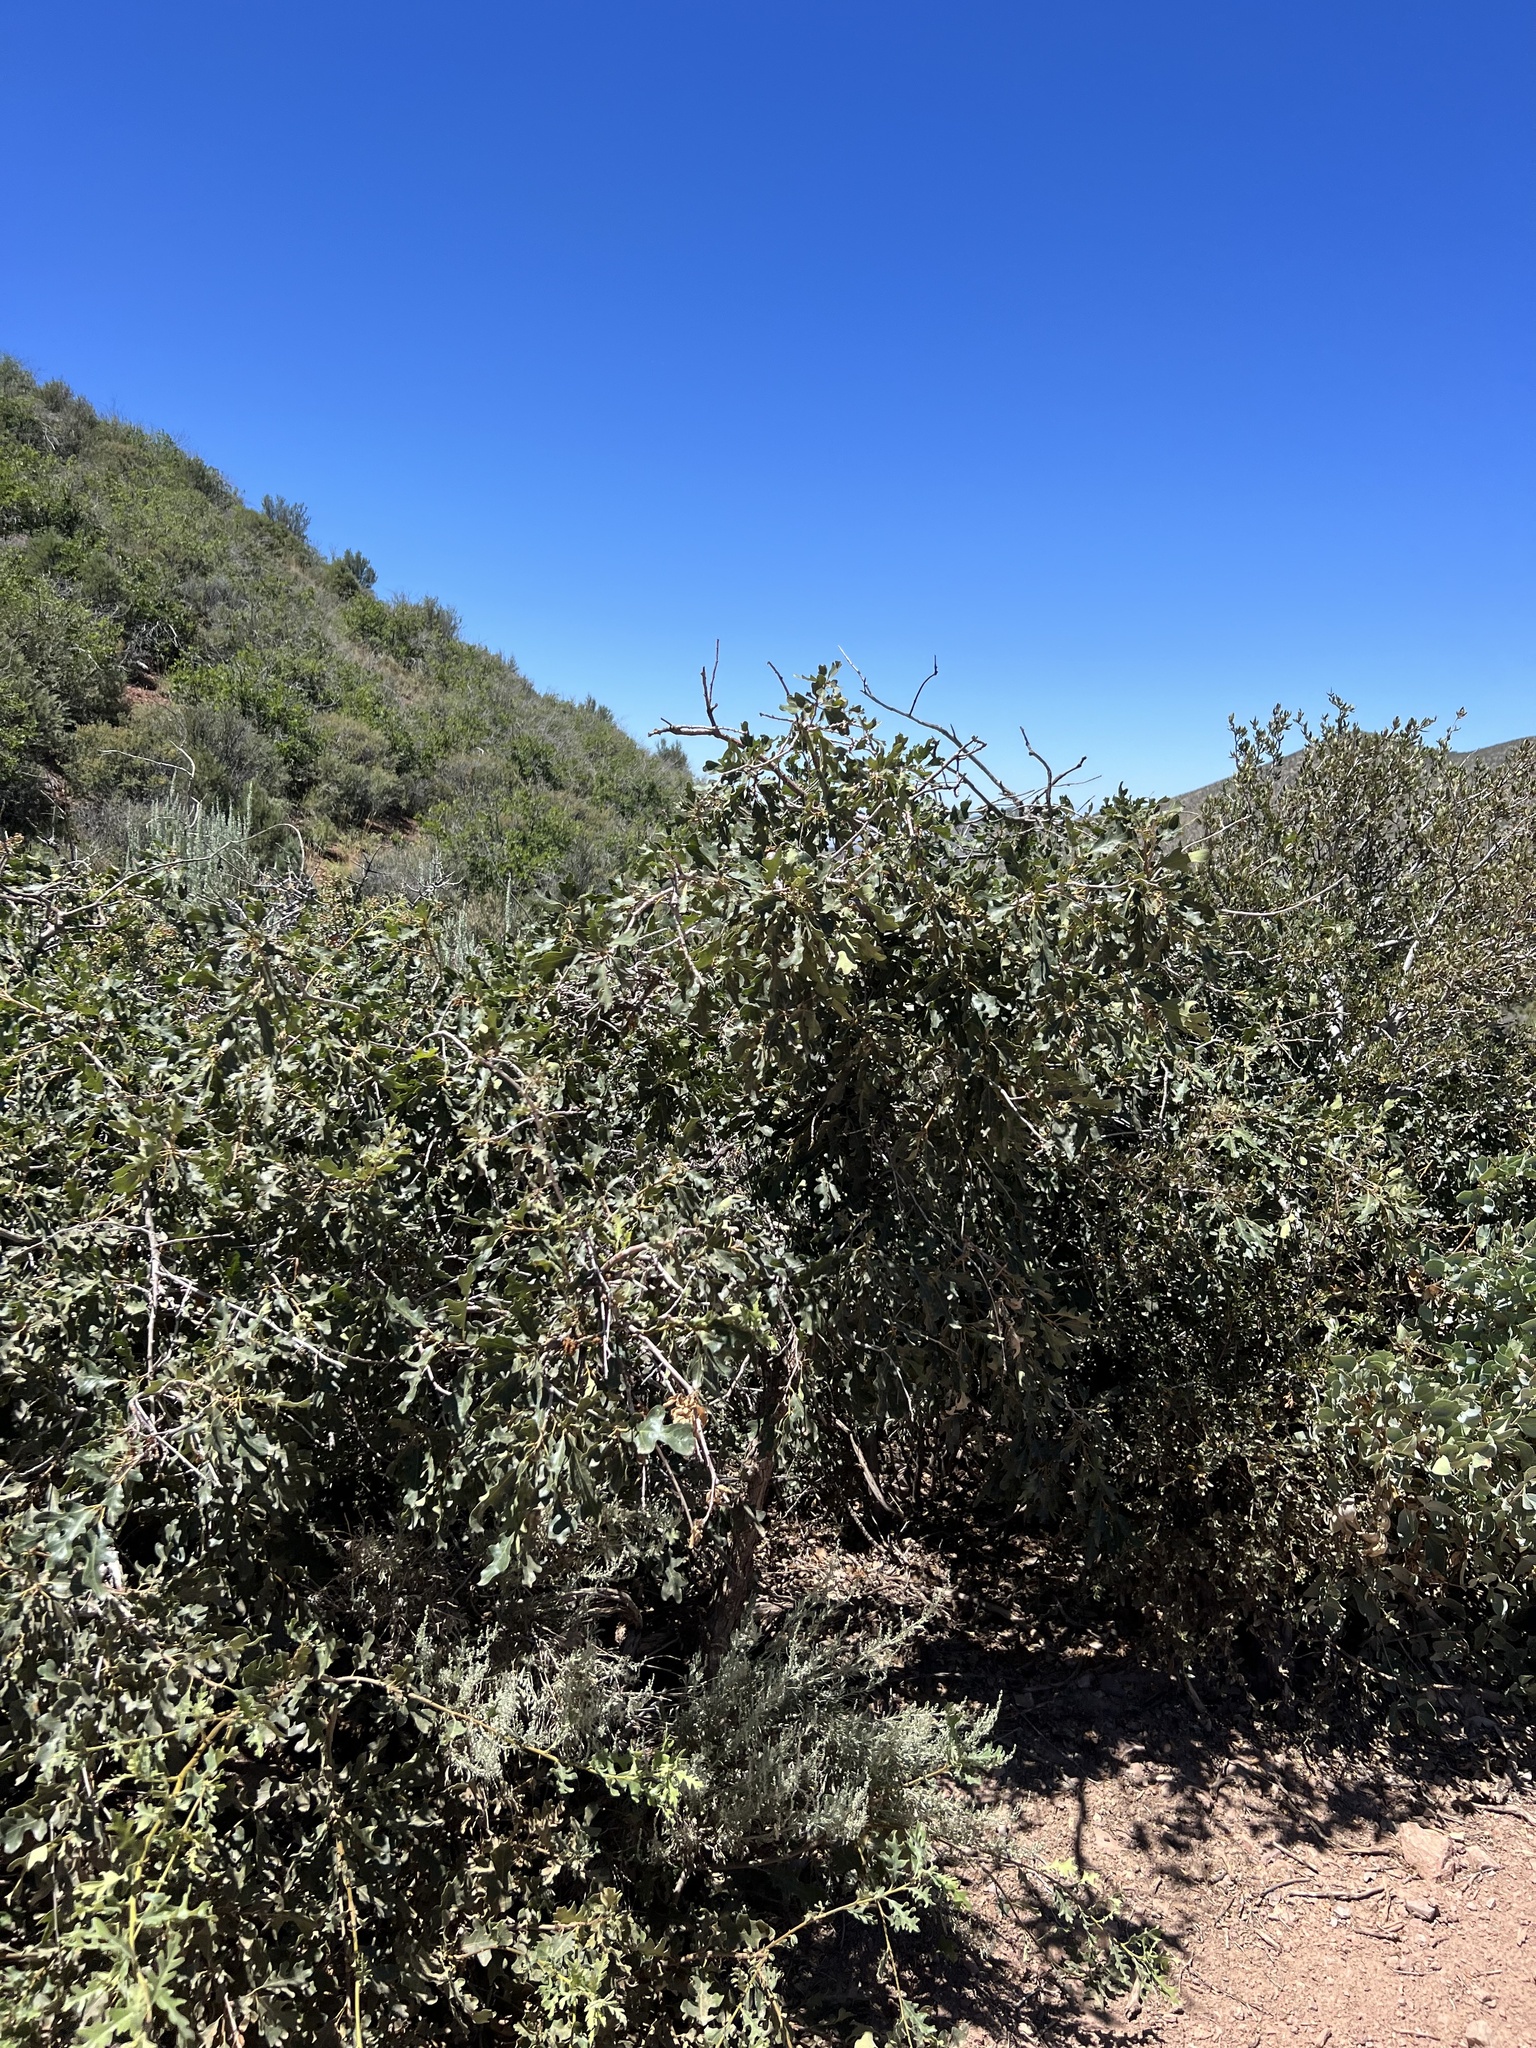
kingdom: Plantae
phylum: Tracheophyta
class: Magnoliopsida
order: Fagales
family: Fagaceae
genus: Quercus
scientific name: Quercus gambelii
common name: Gambel oak
